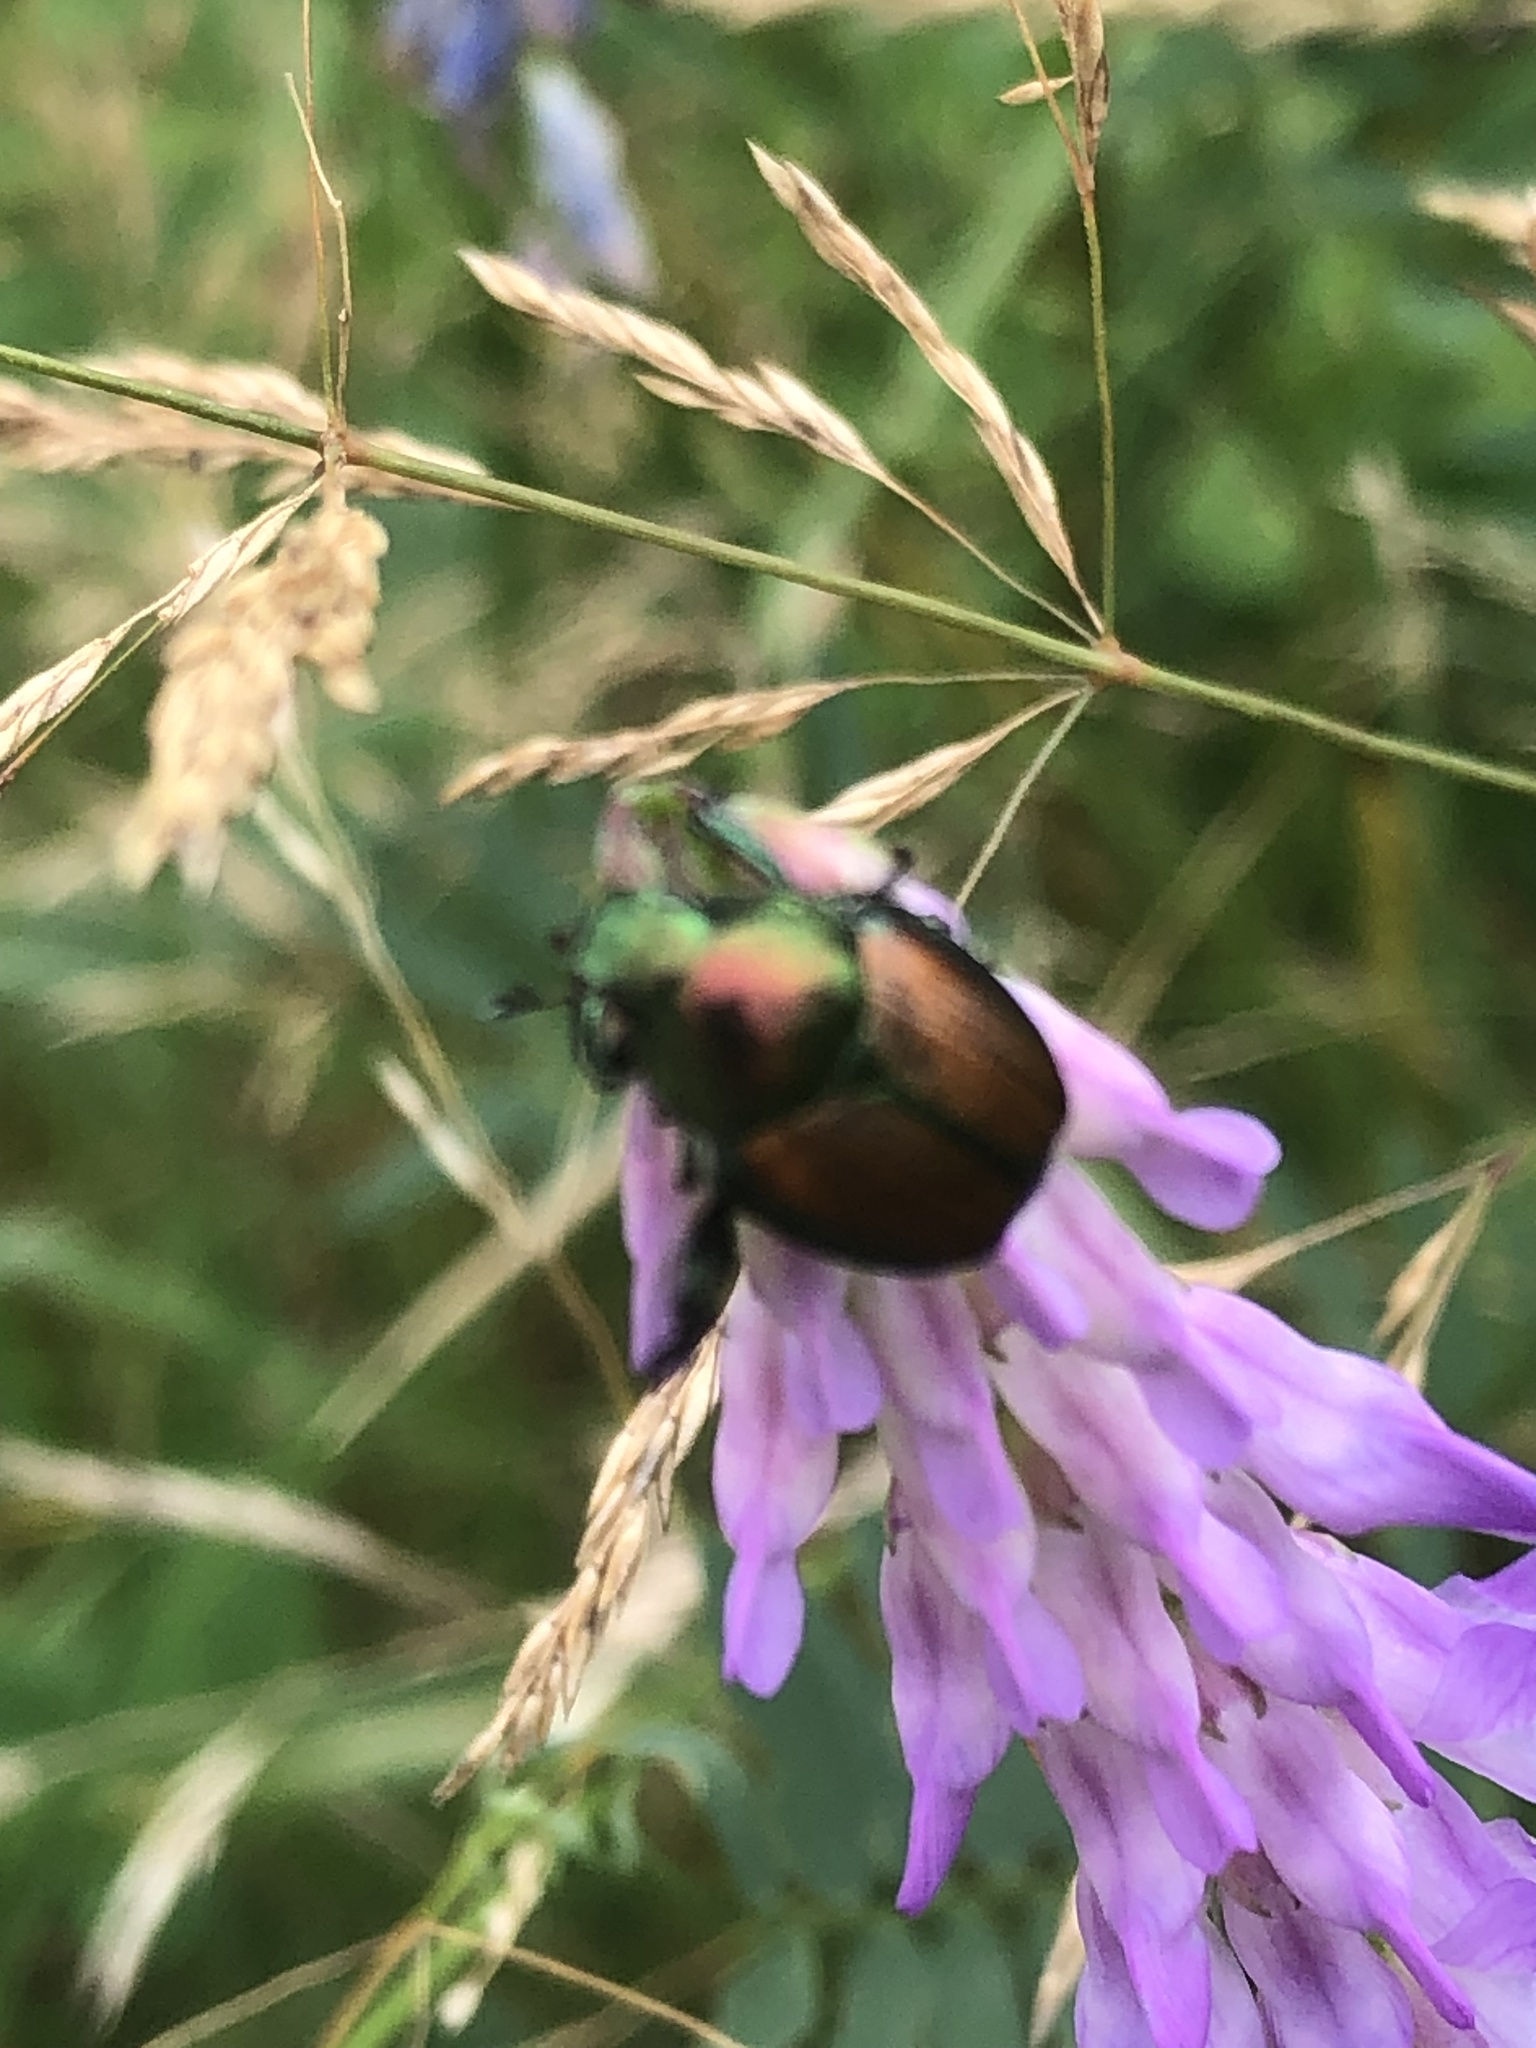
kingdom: Animalia
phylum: Arthropoda
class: Insecta
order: Coleoptera
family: Scarabaeidae
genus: Popillia
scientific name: Popillia japonica
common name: Japanese beetle
